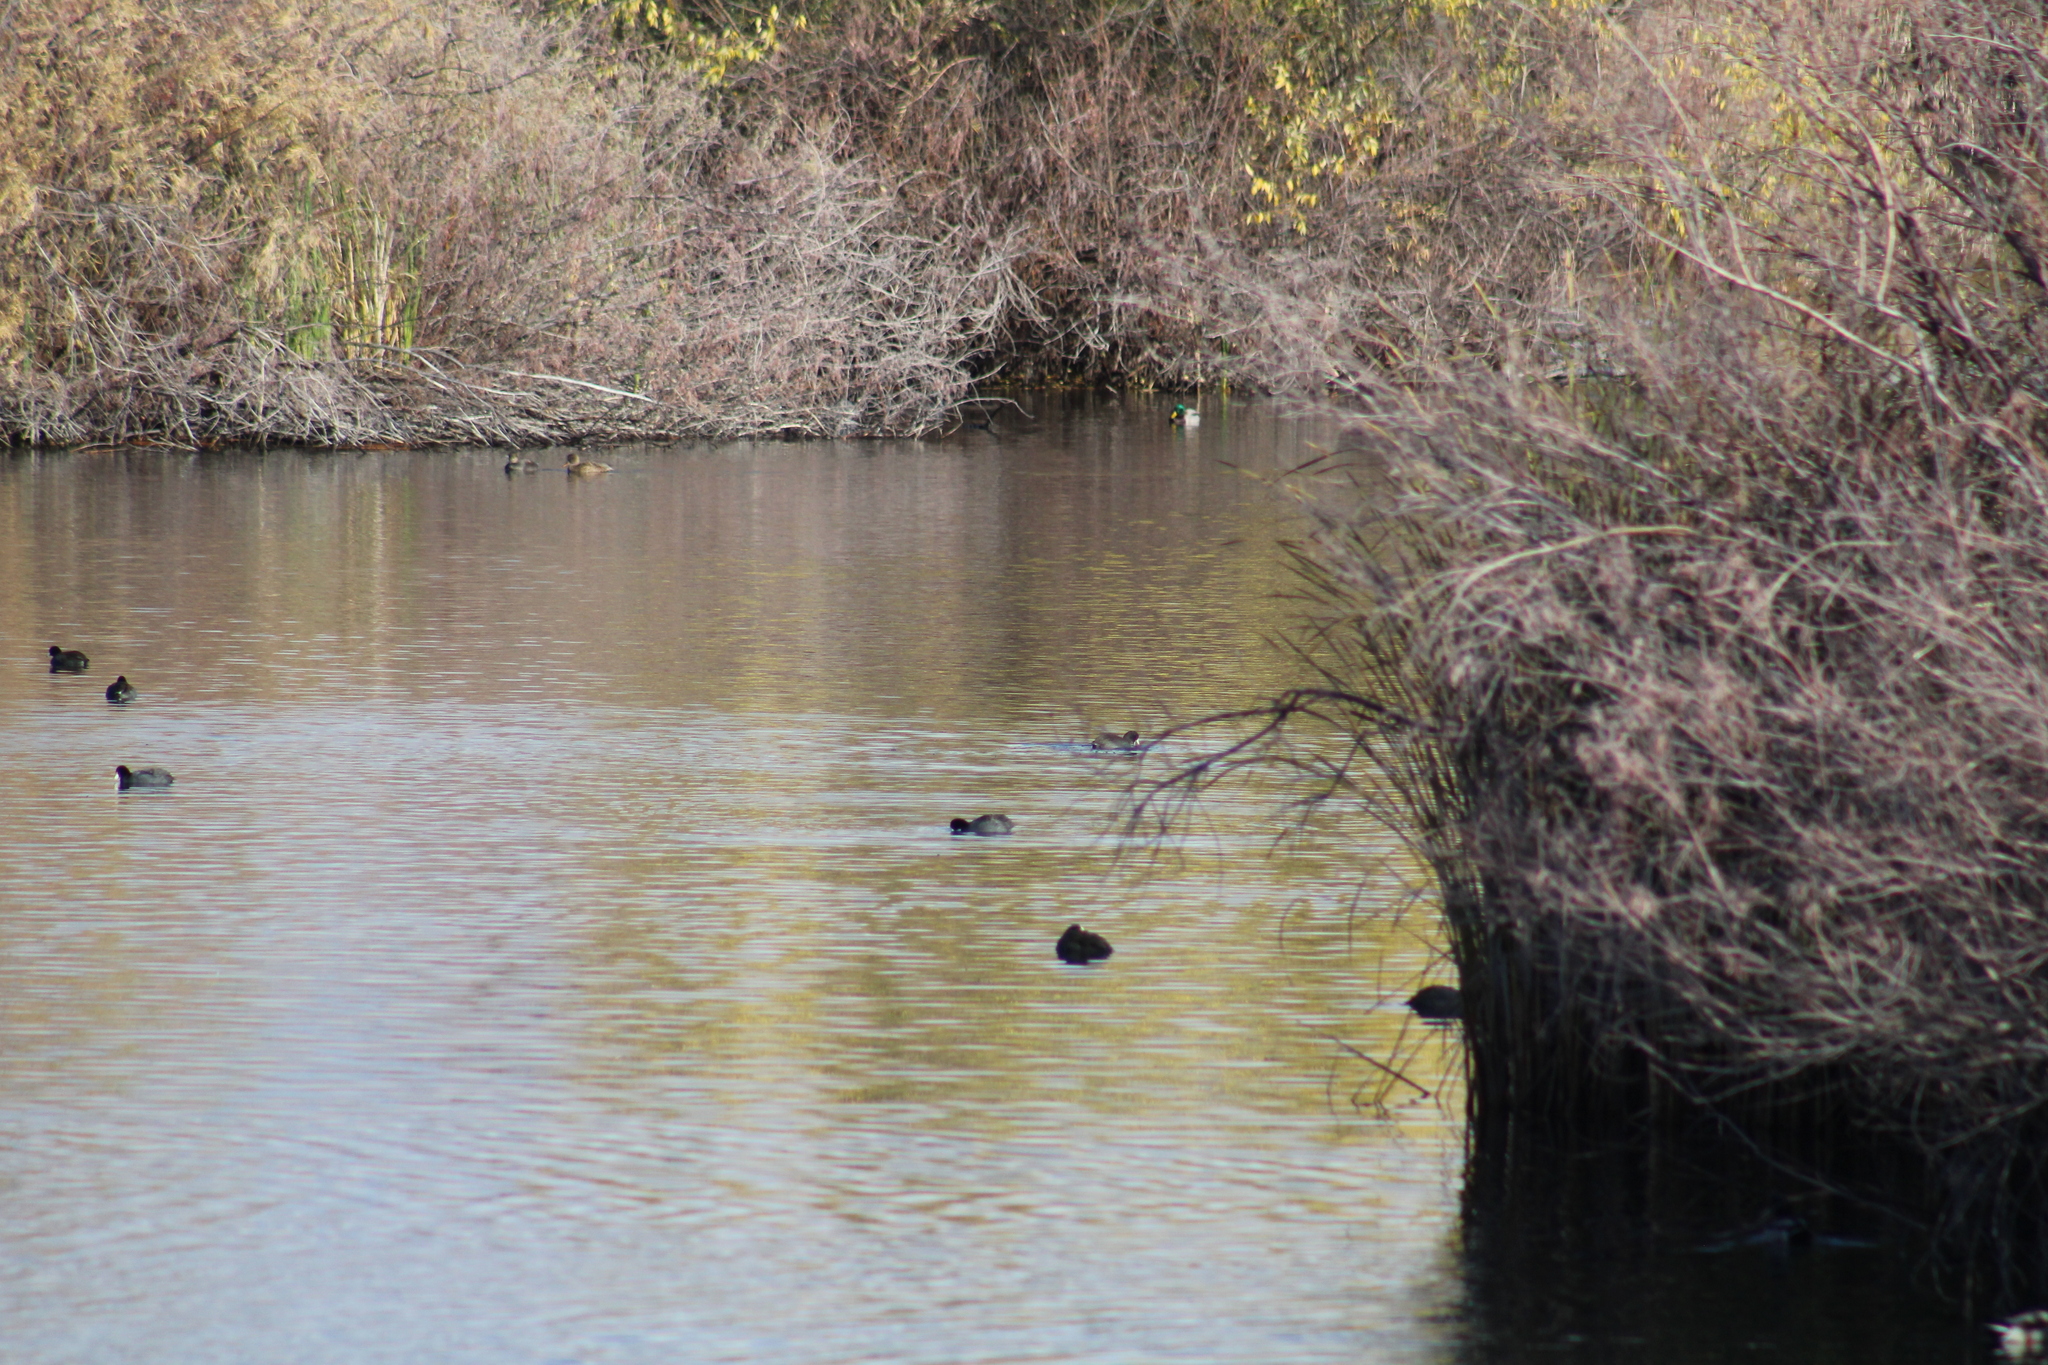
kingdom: Animalia
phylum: Chordata
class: Aves
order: Gruiformes
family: Rallidae
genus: Fulica
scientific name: Fulica americana
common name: American coot
